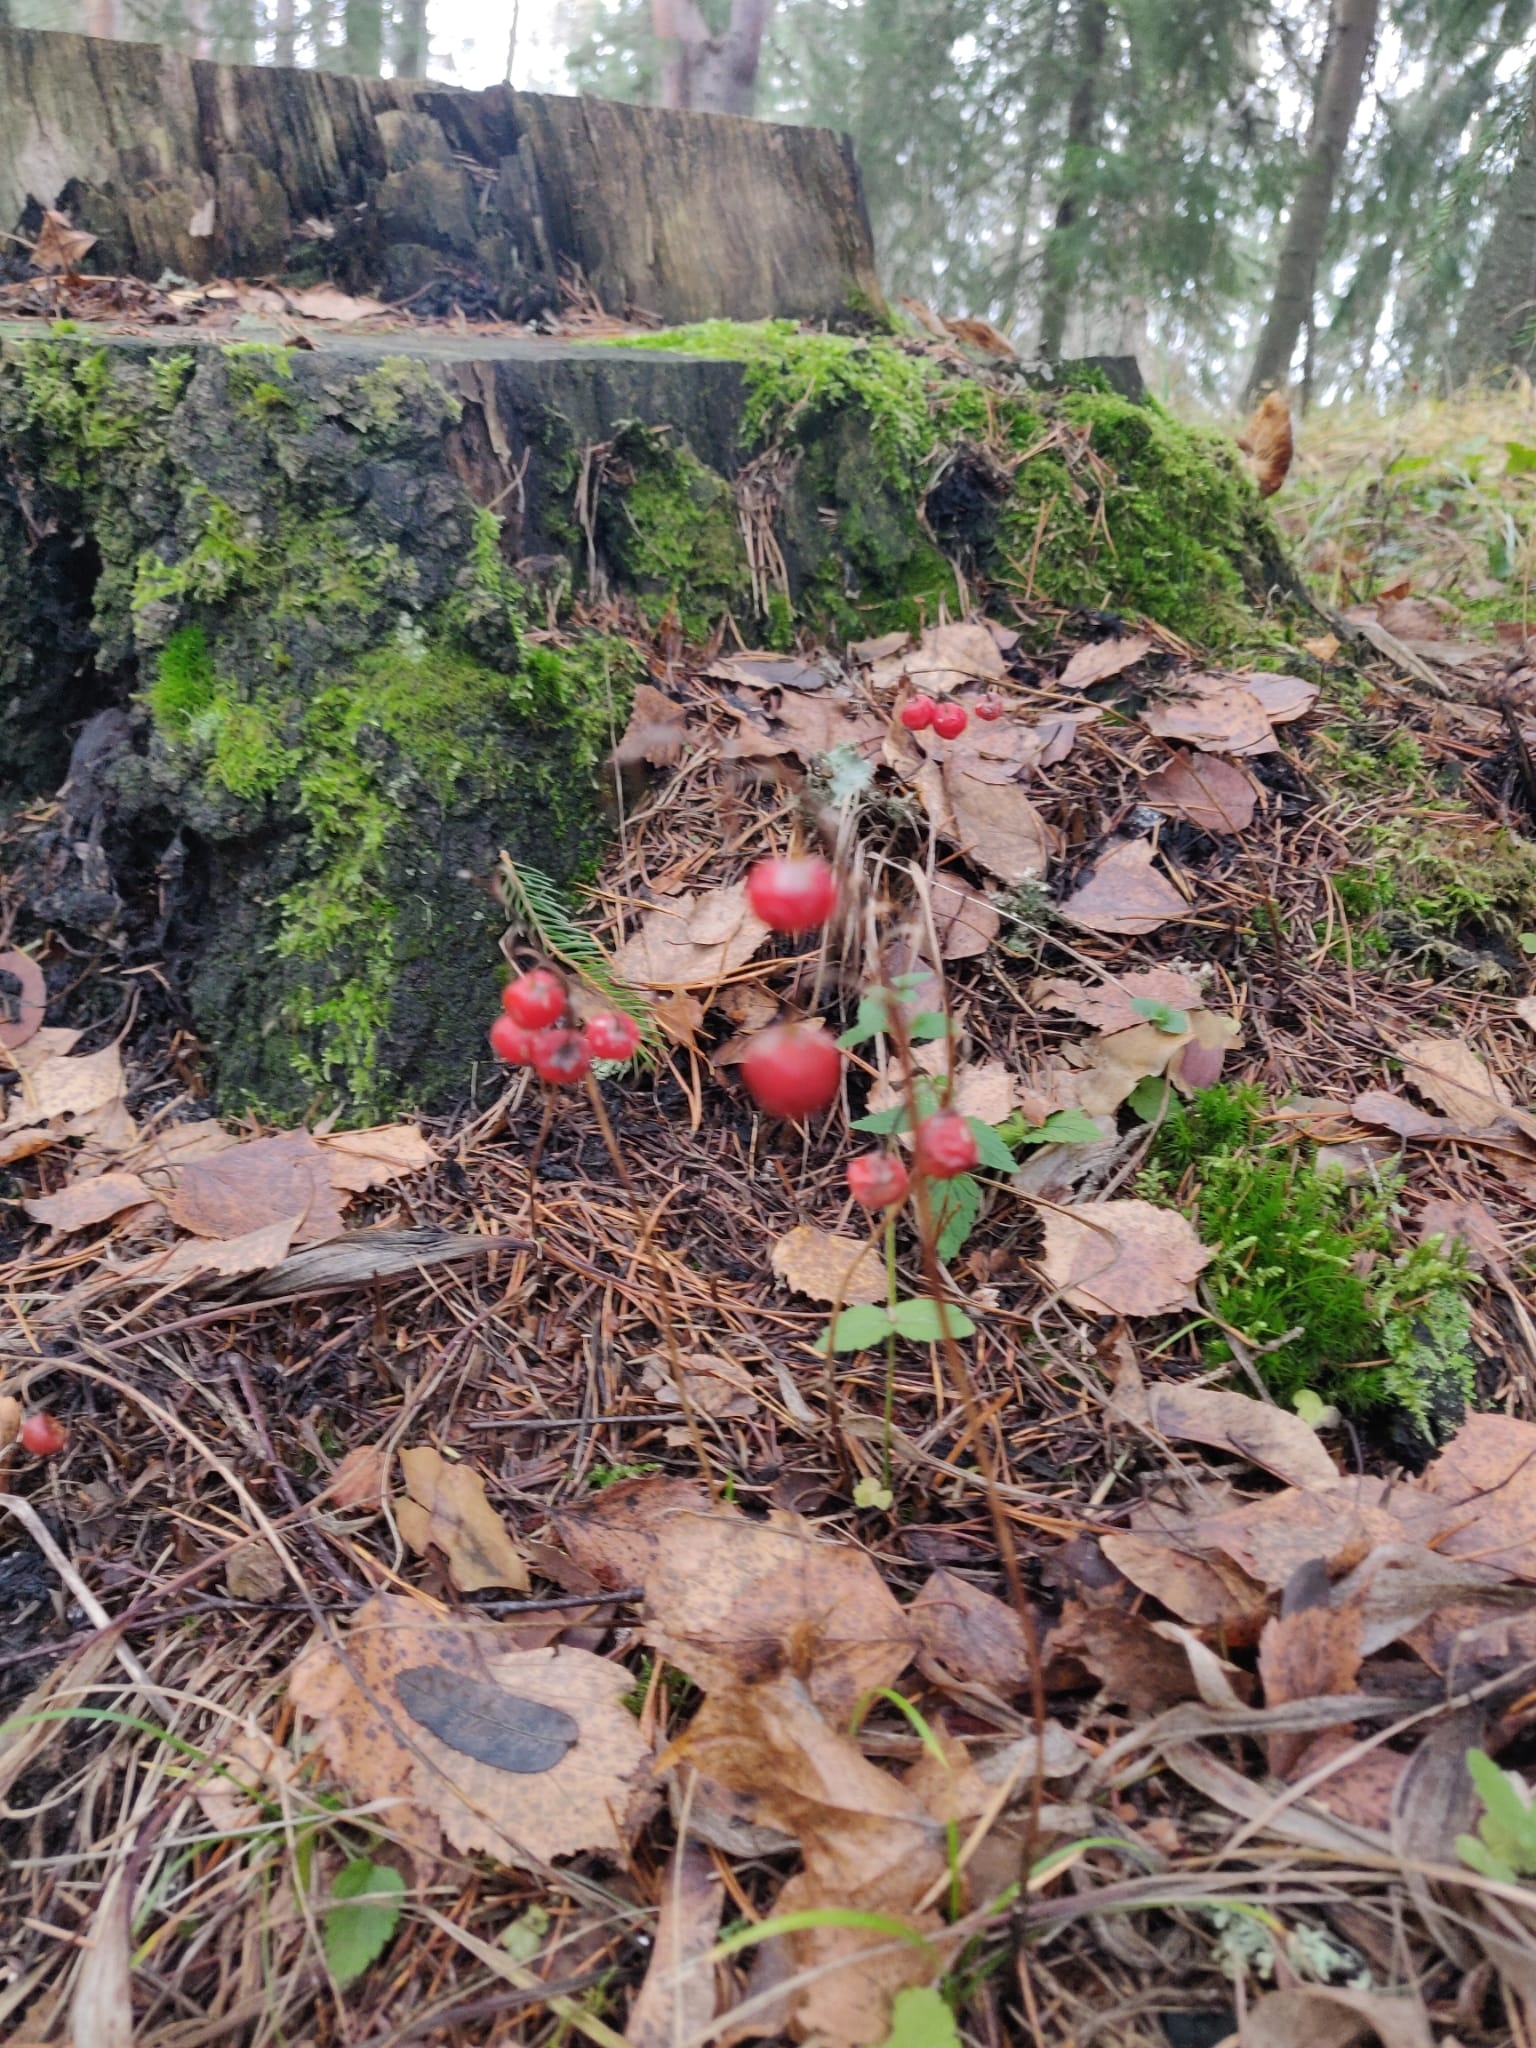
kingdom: Plantae
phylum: Tracheophyta
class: Liliopsida
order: Asparagales
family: Asparagaceae
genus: Convallaria
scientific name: Convallaria majalis
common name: Lily-of-the-valley
